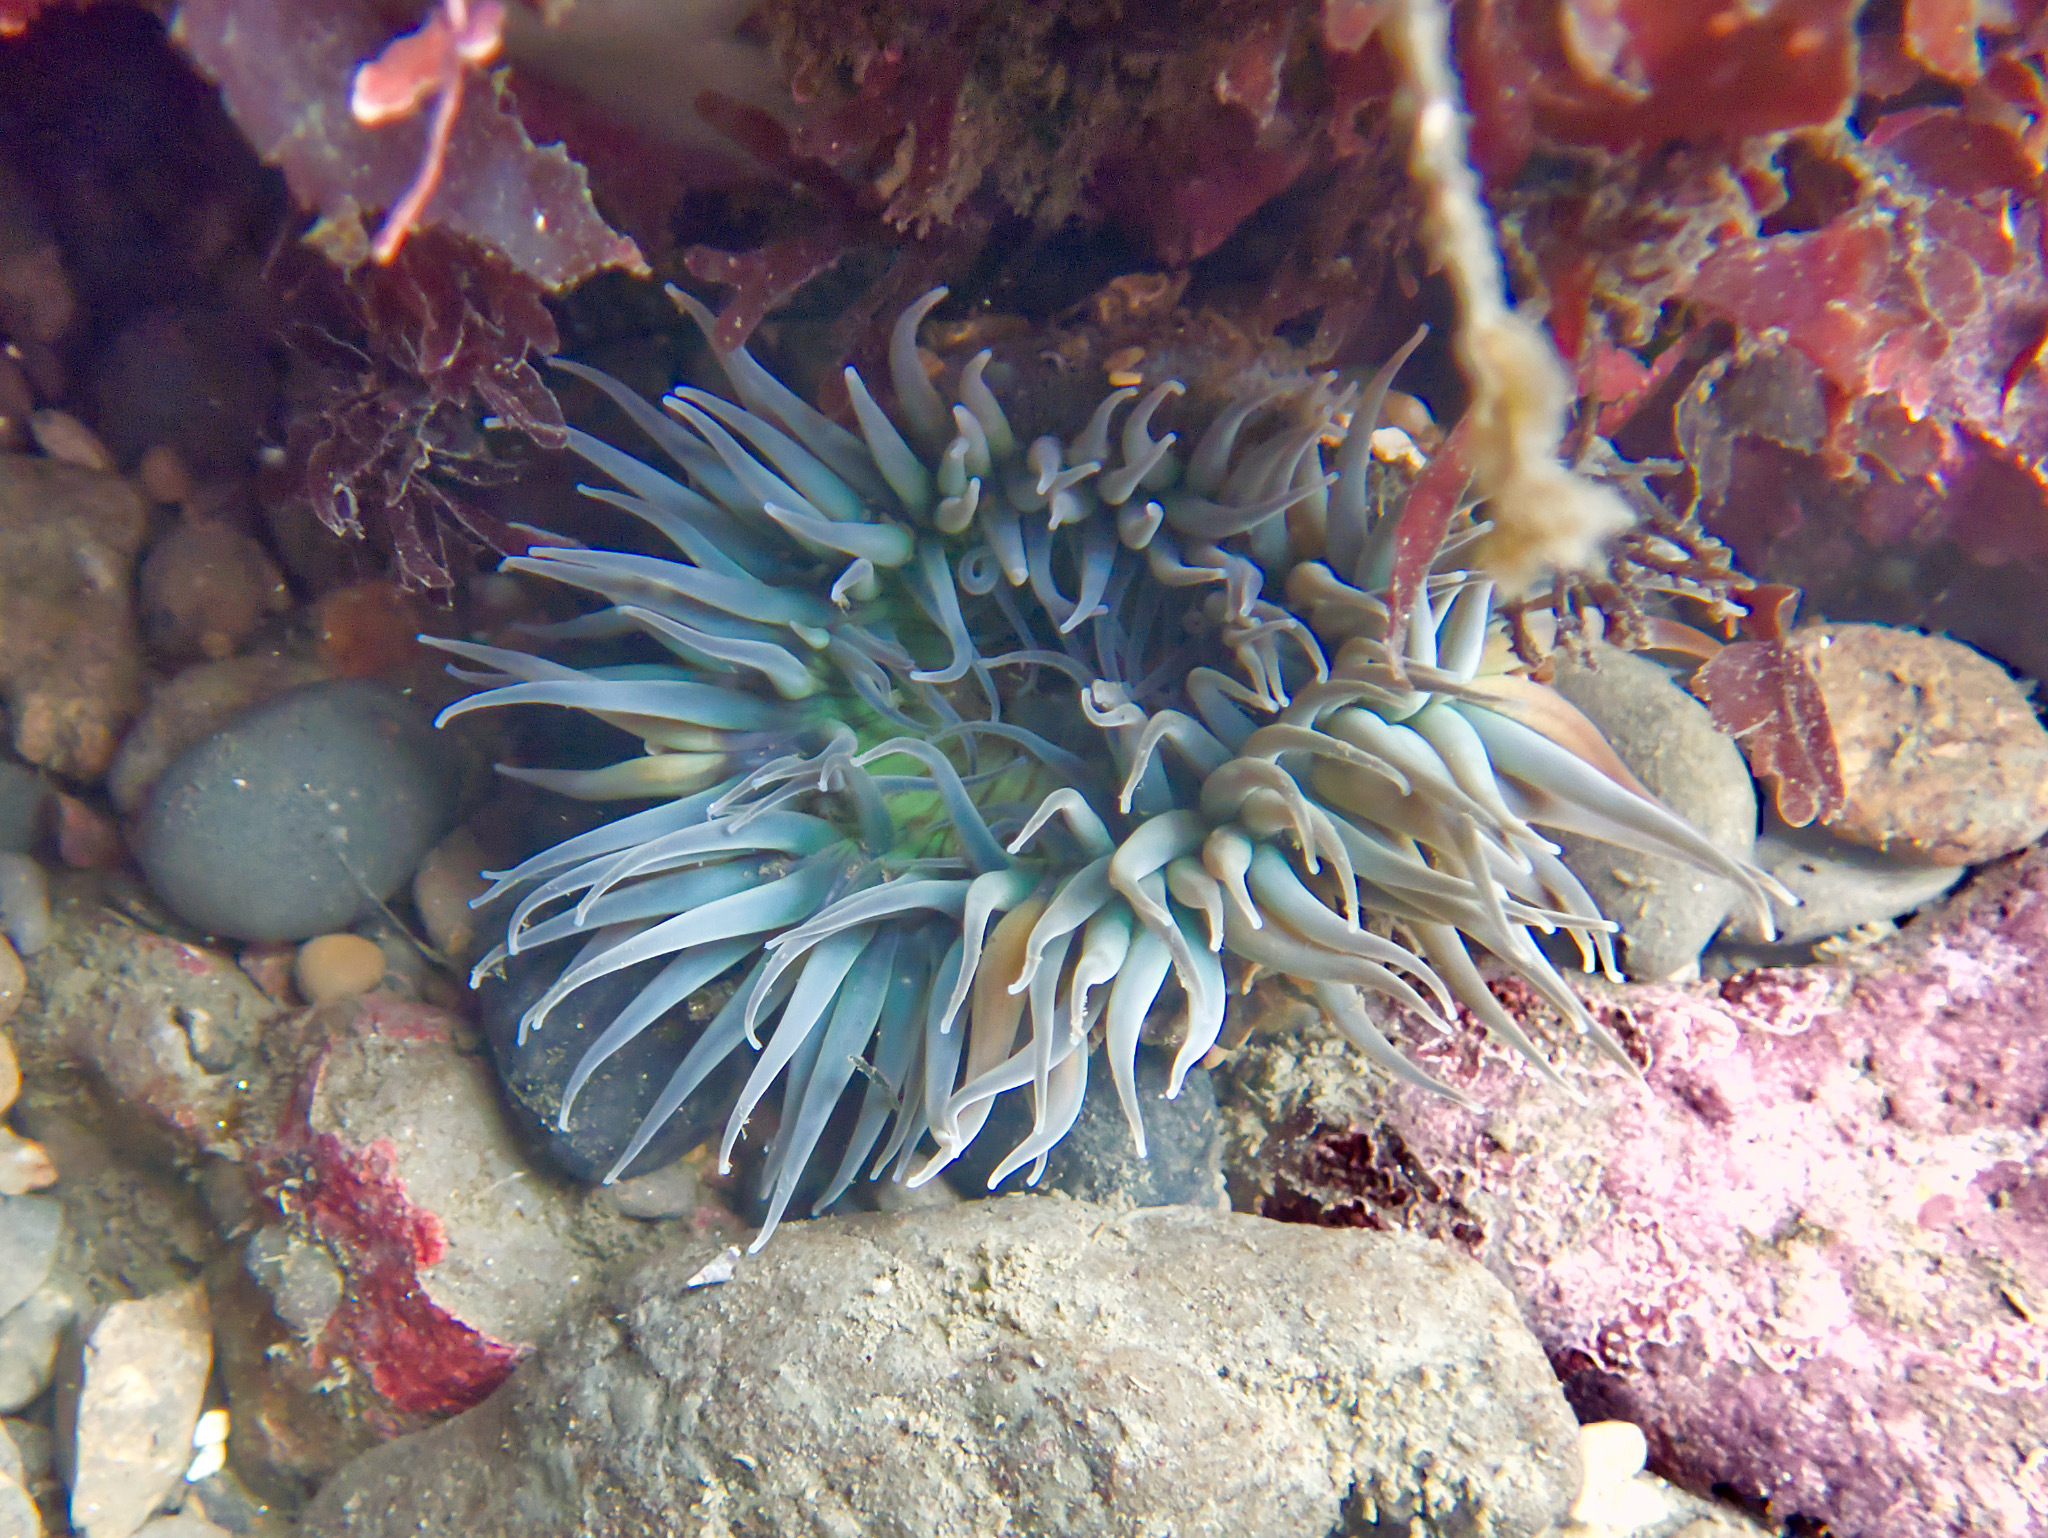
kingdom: Animalia
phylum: Cnidaria
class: Anthozoa
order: Actiniaria
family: Actiniidae
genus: Anthopleura
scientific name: Anthopleura sola
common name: Sun anemone
